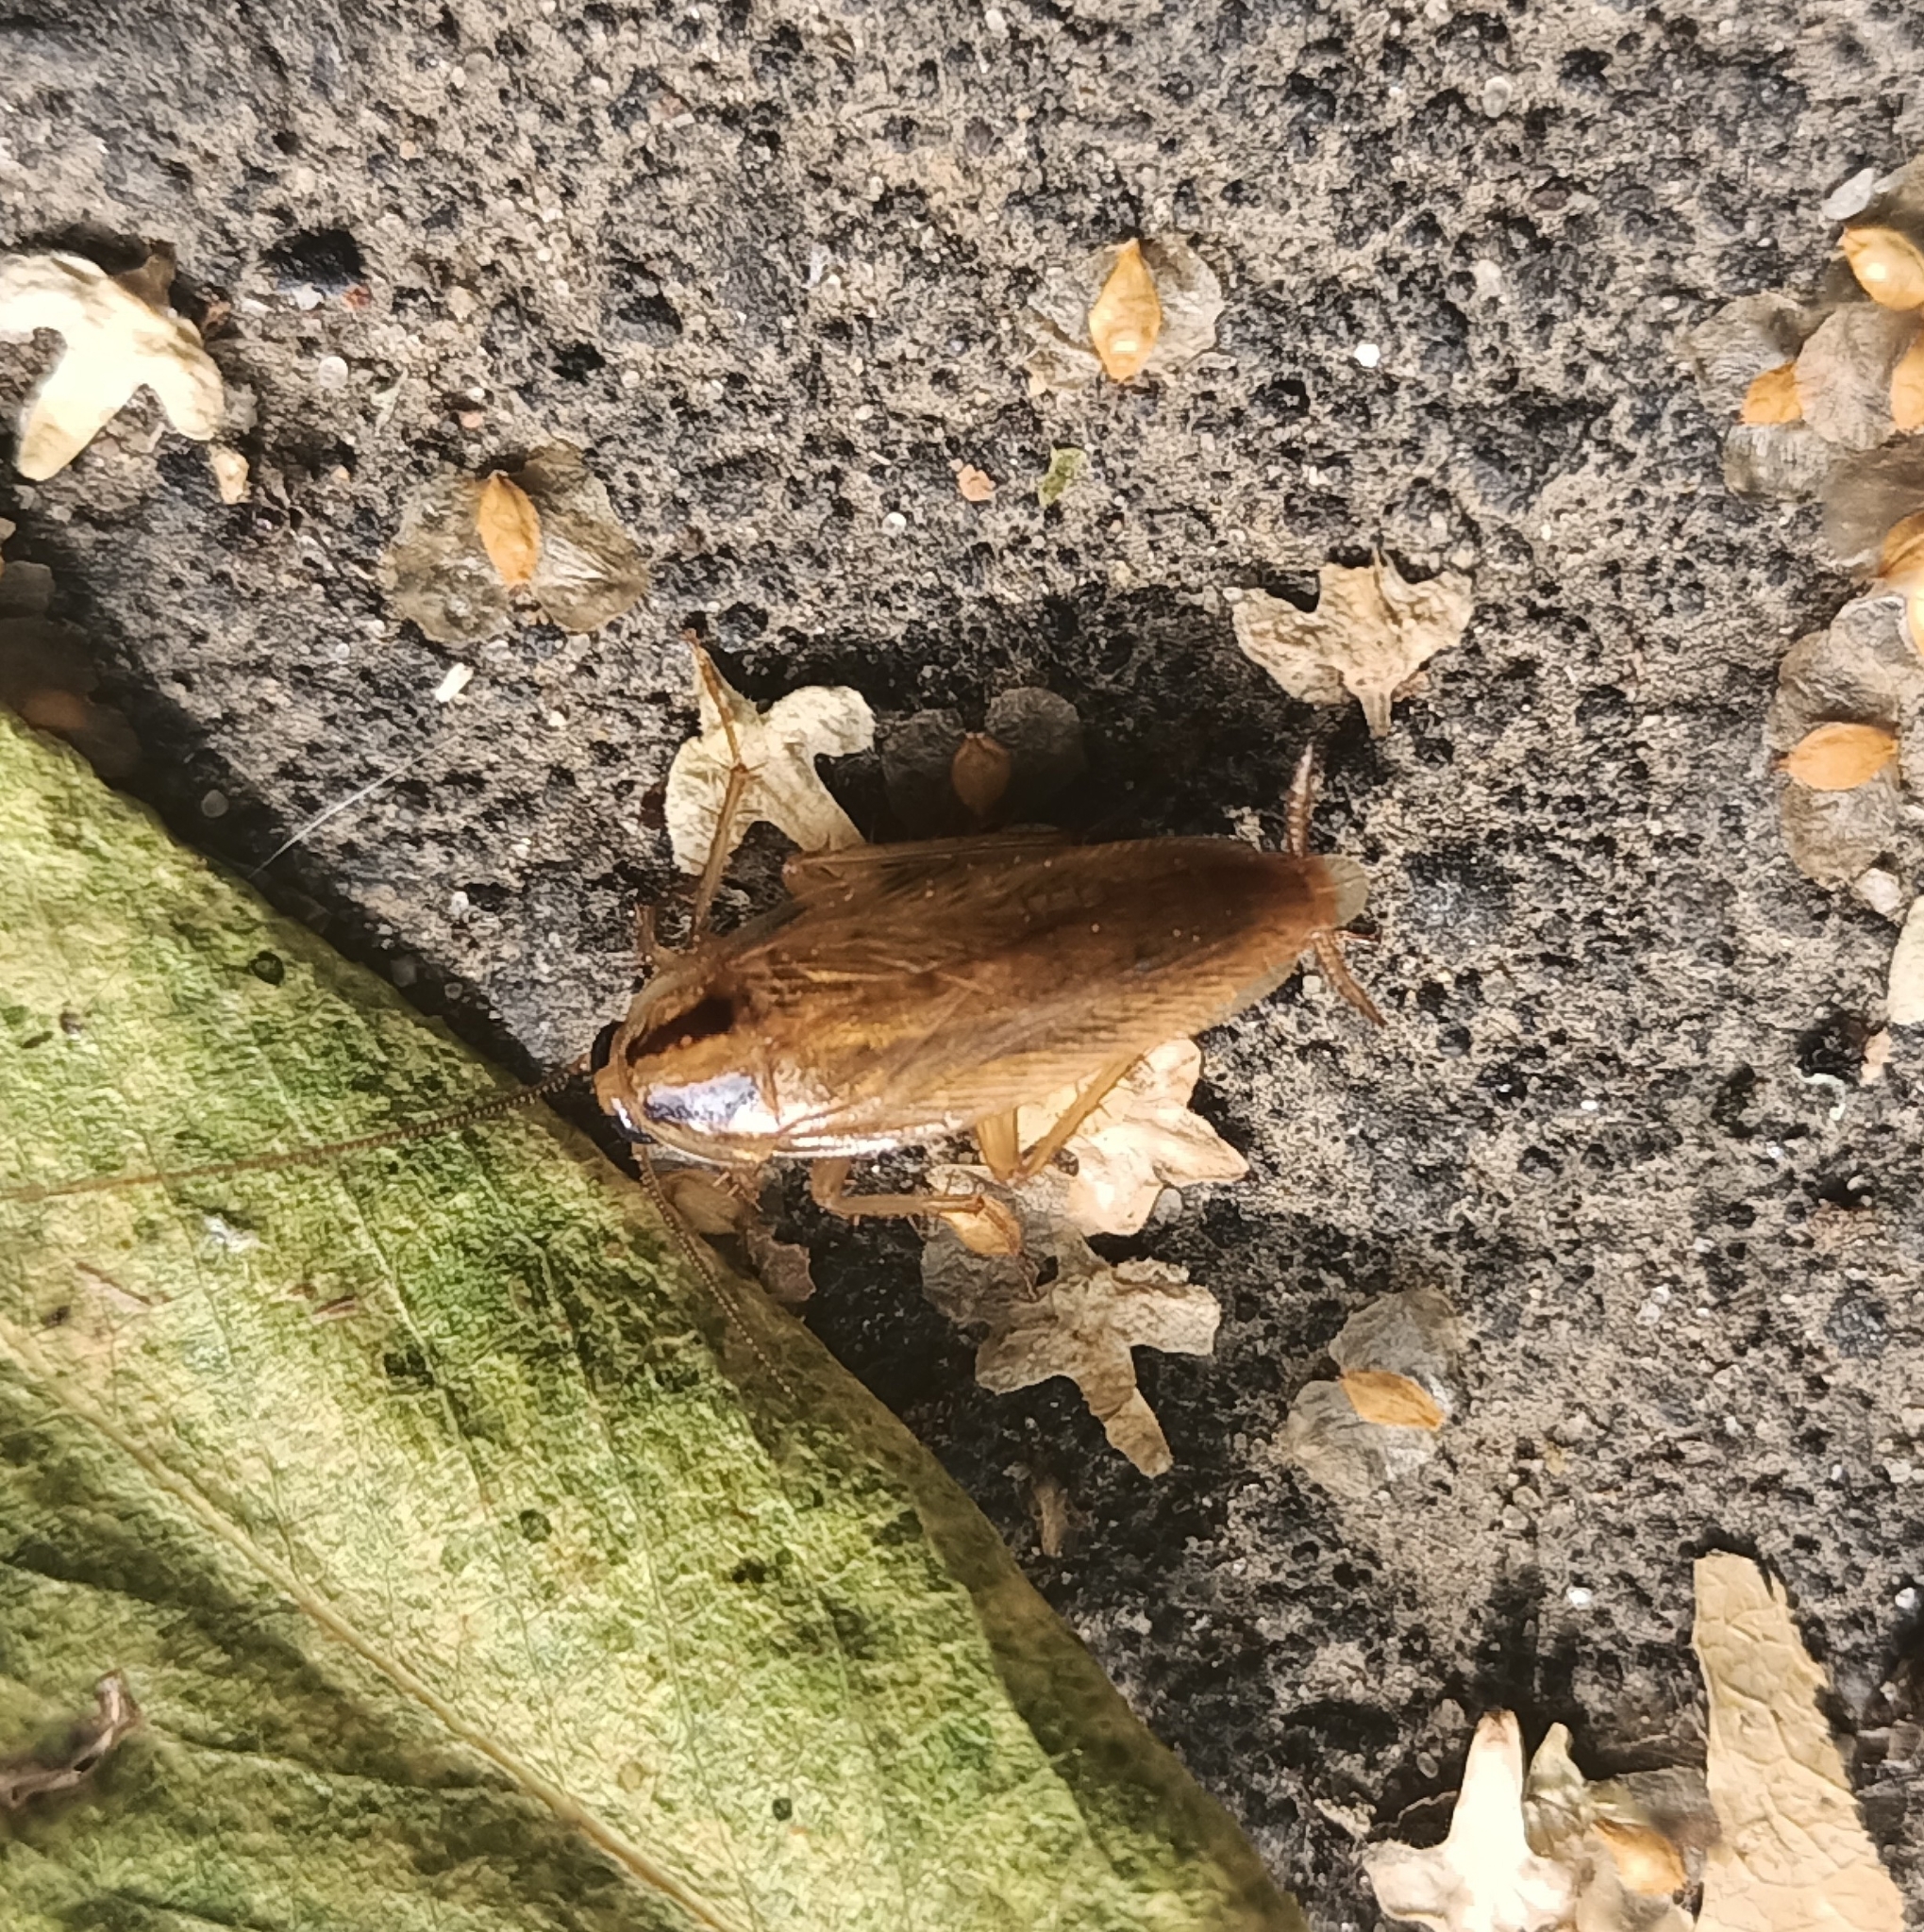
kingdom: Animalia
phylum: Arthropoda
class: Insecta
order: Blattodea
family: Ectobiidae
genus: Blattella
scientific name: Blattella germanica
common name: German cockroach
